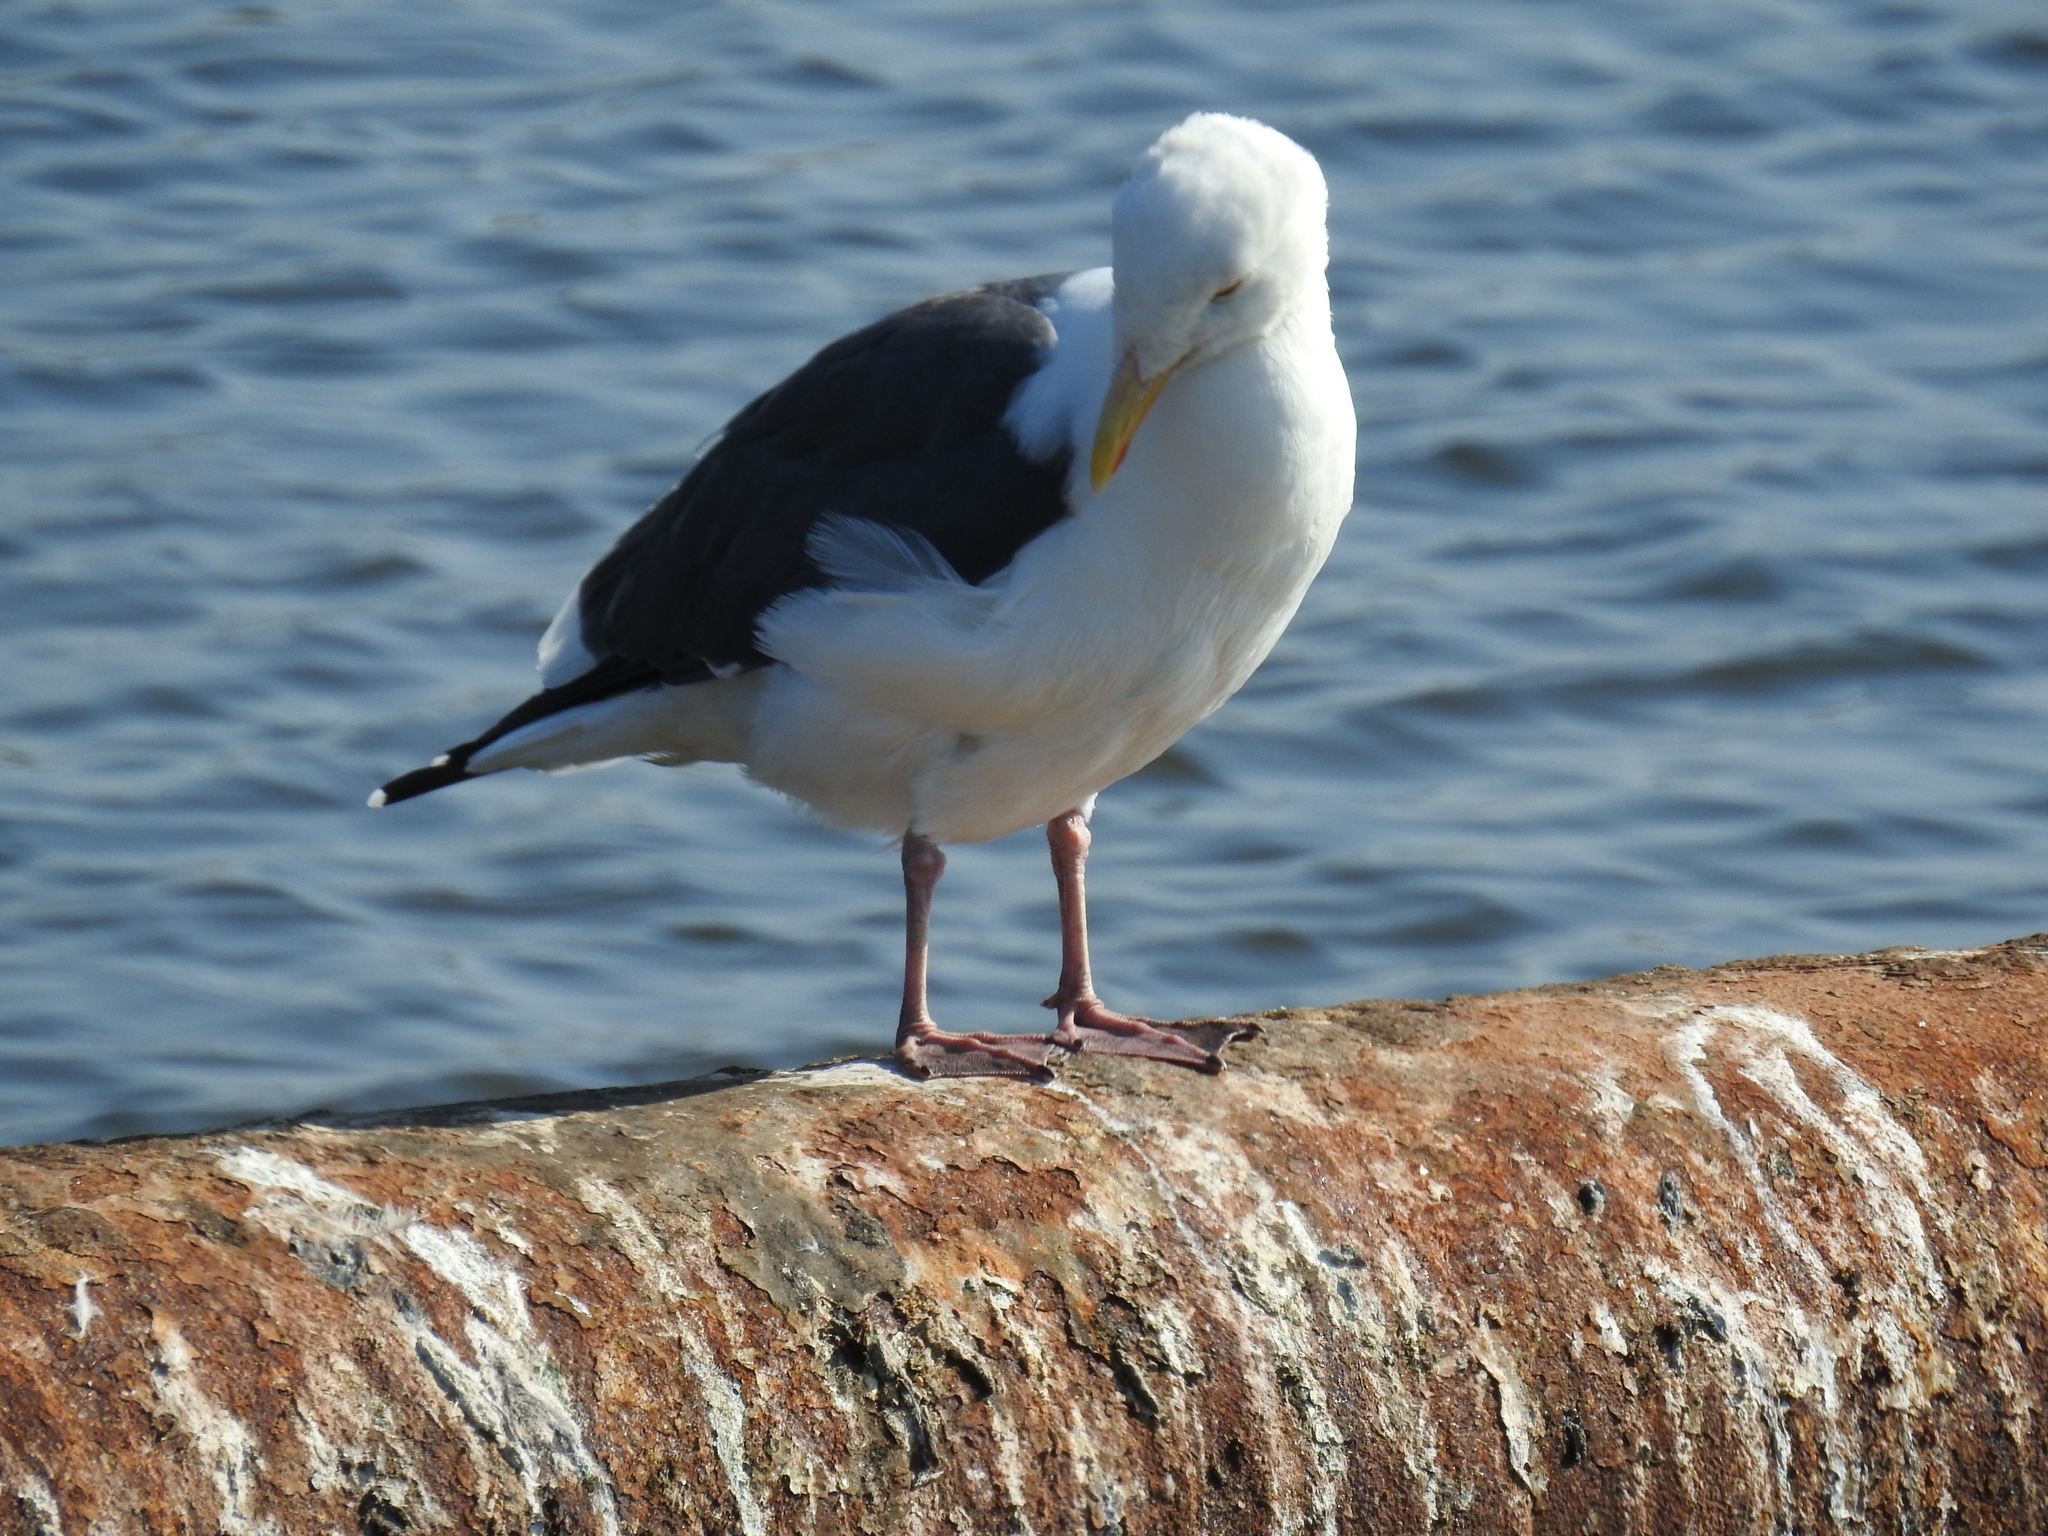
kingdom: Animalia
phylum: Chordata
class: Aves
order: Charadriiformes
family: Laridae
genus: Larus
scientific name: Larus occidentalis
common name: Western gull
